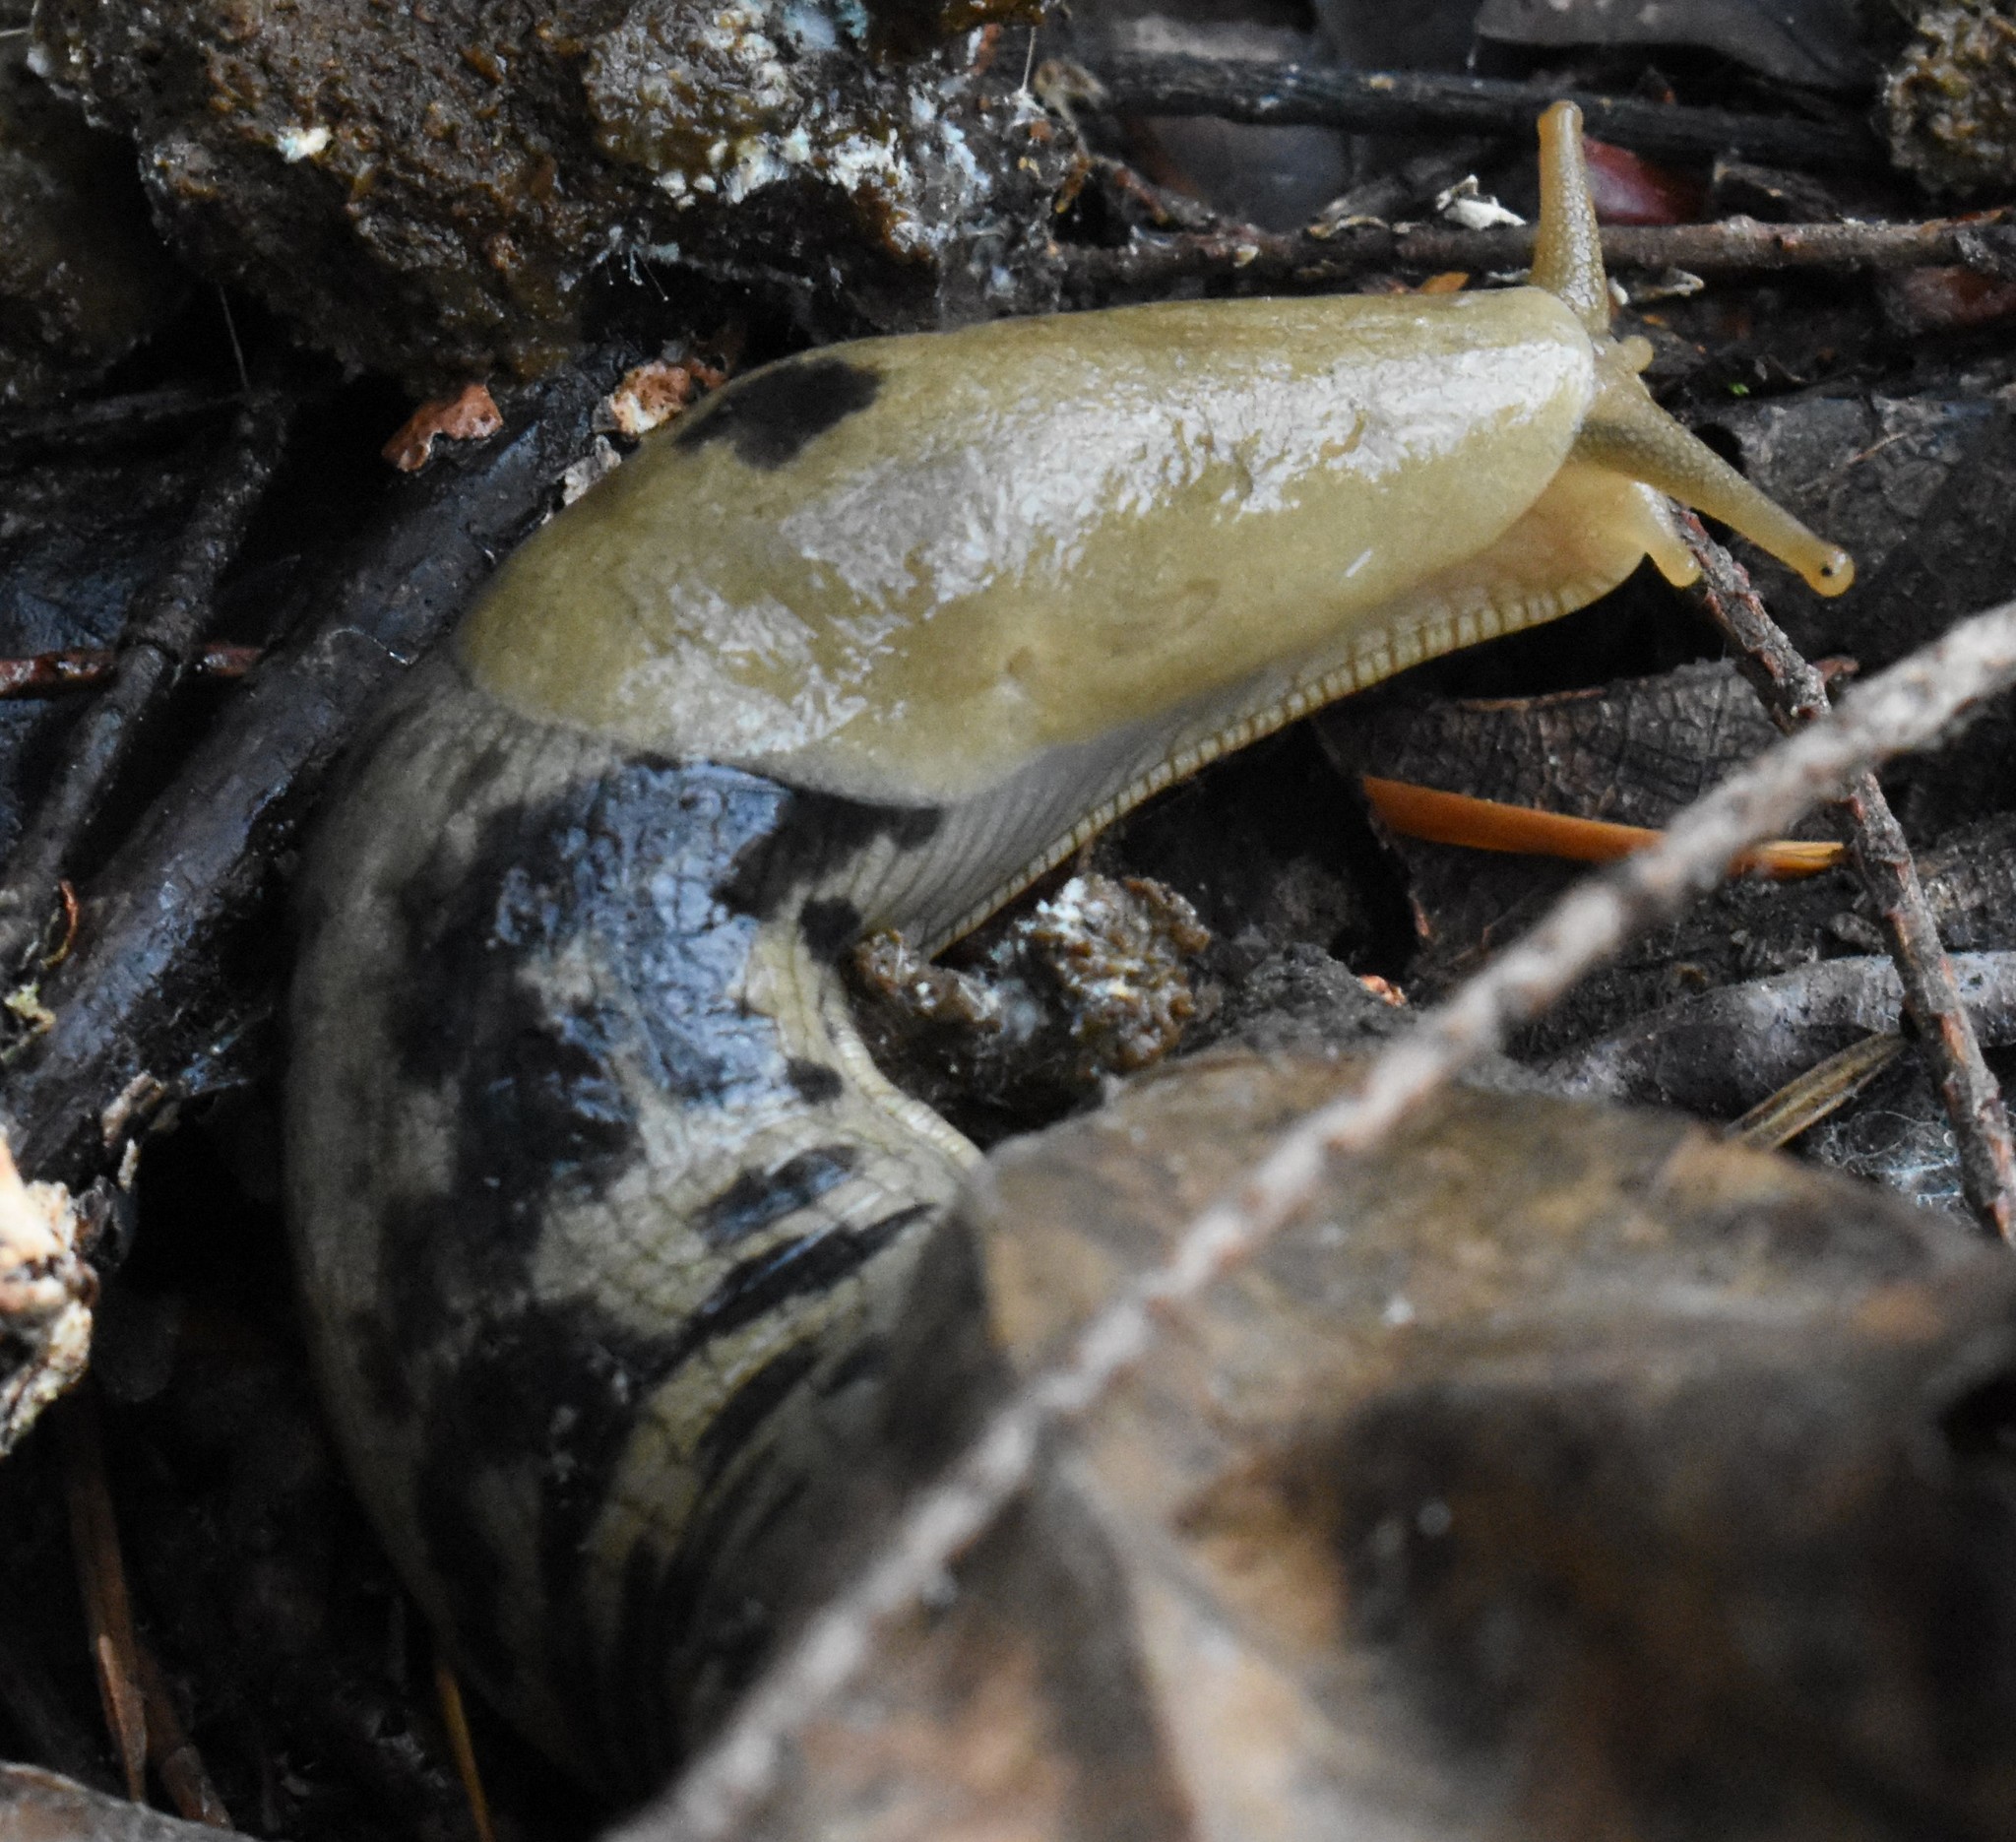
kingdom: Animalia
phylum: Mollusca
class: Gastropoda
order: Stylommatophora
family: Ariolimacidae
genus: Ariolimax
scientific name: Ariolimax columbianus
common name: Pacific banana slug
